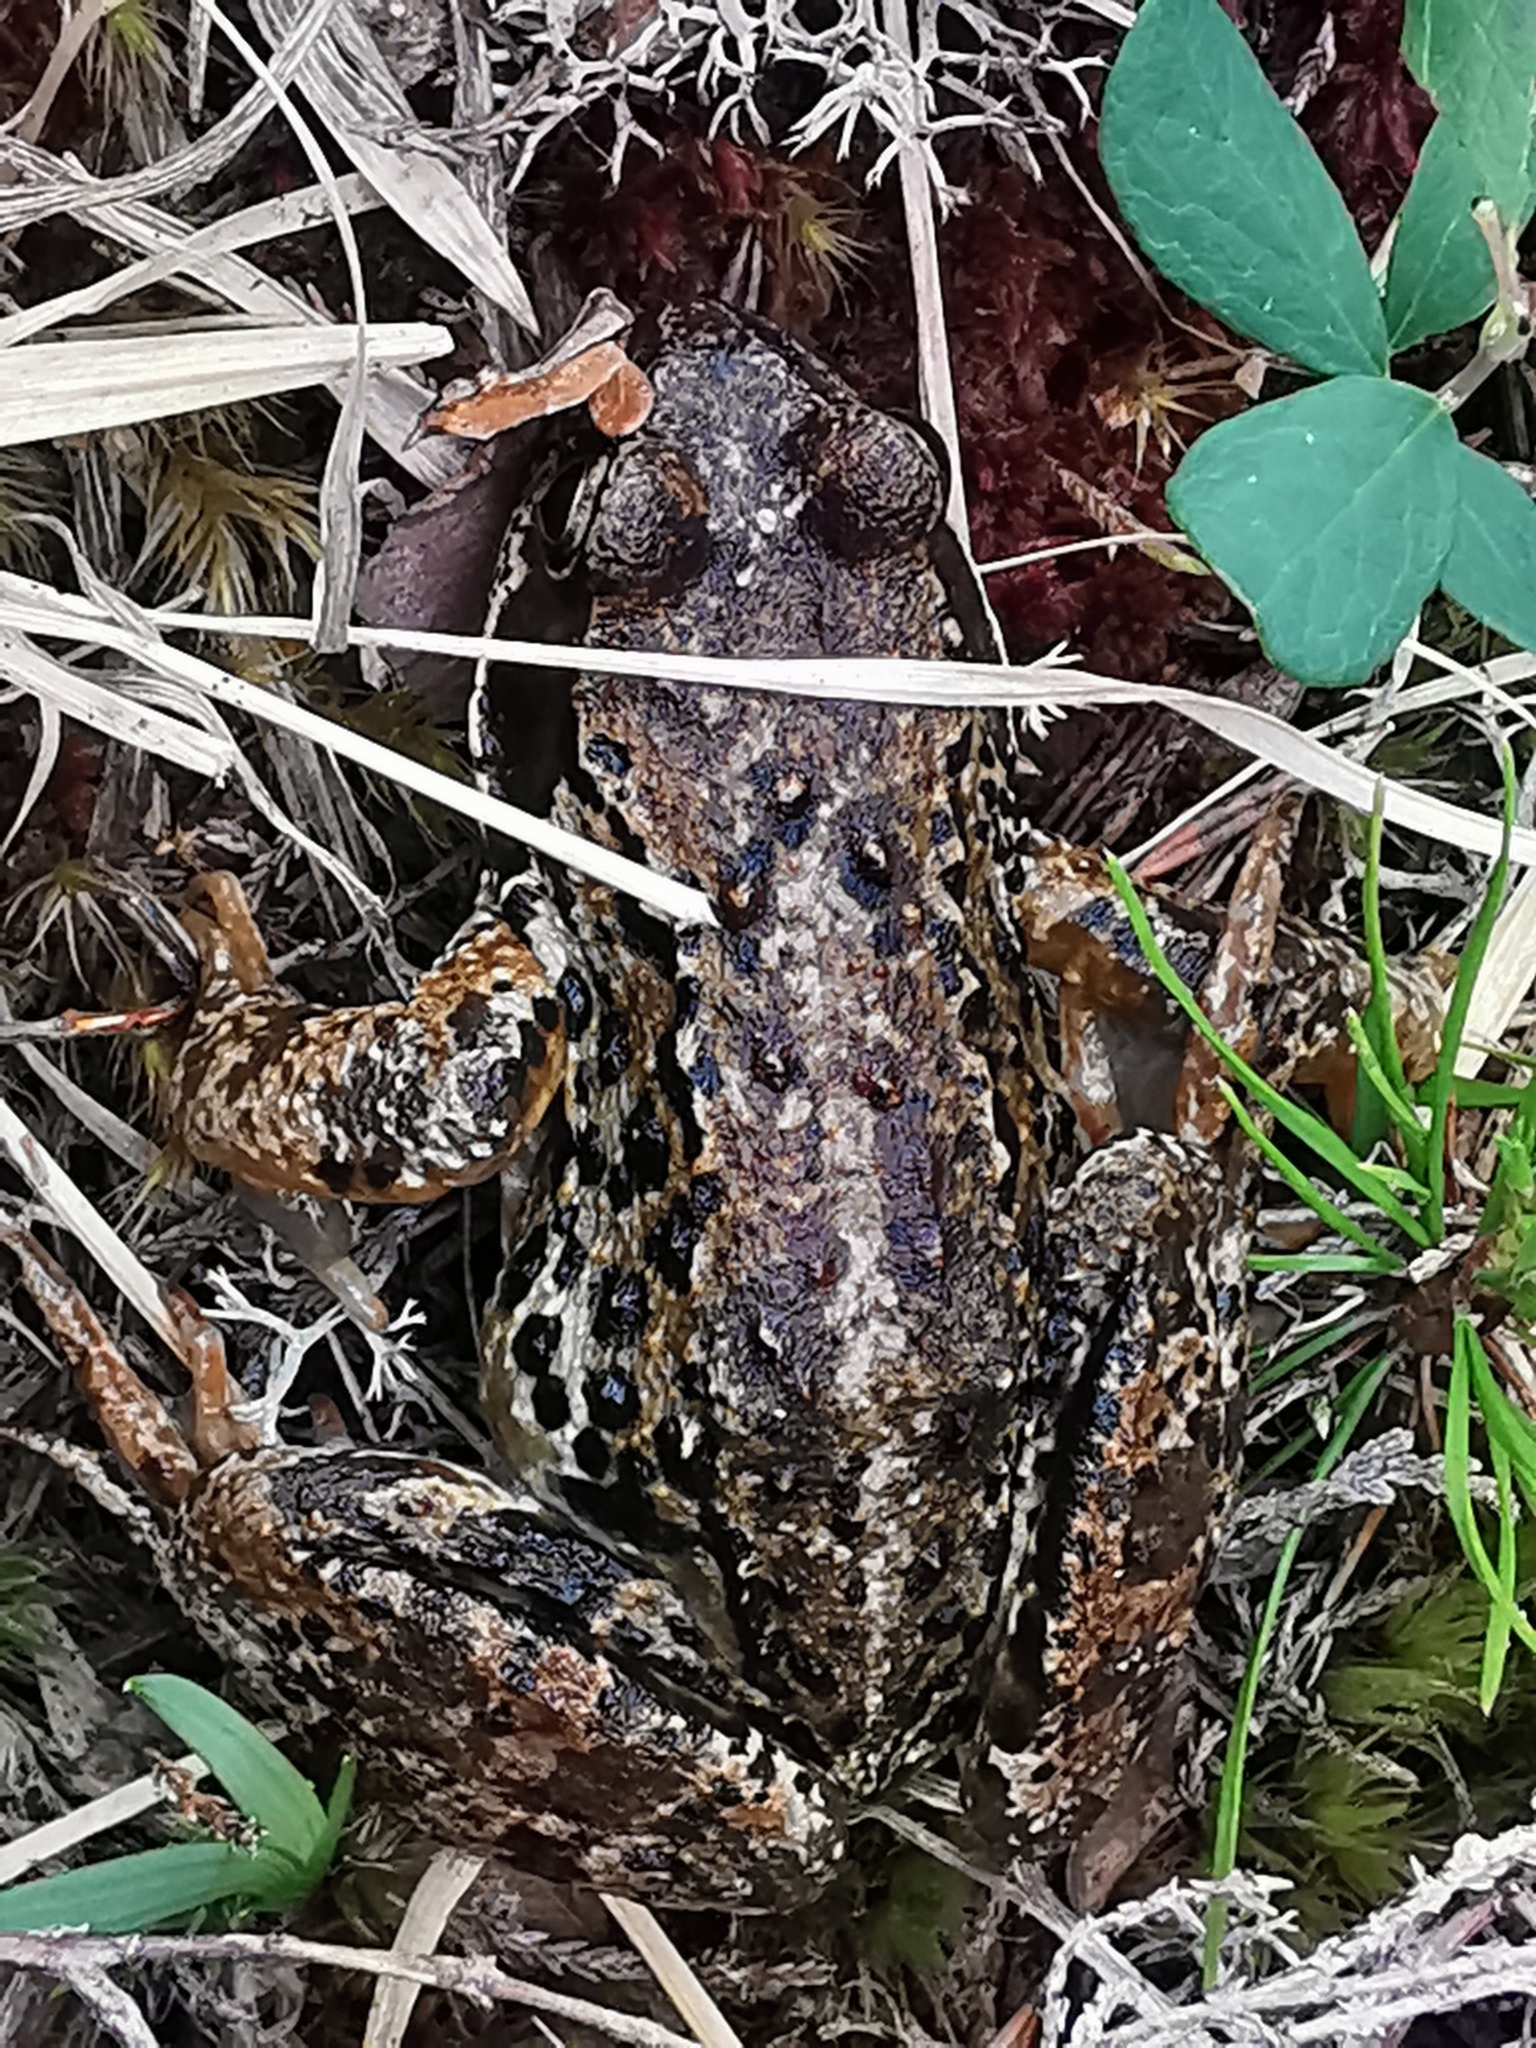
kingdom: Animalia
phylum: Chordata
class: Amphibia
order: Anura
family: Ranidae
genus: Rana
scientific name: Rana temporaria
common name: Common frog
